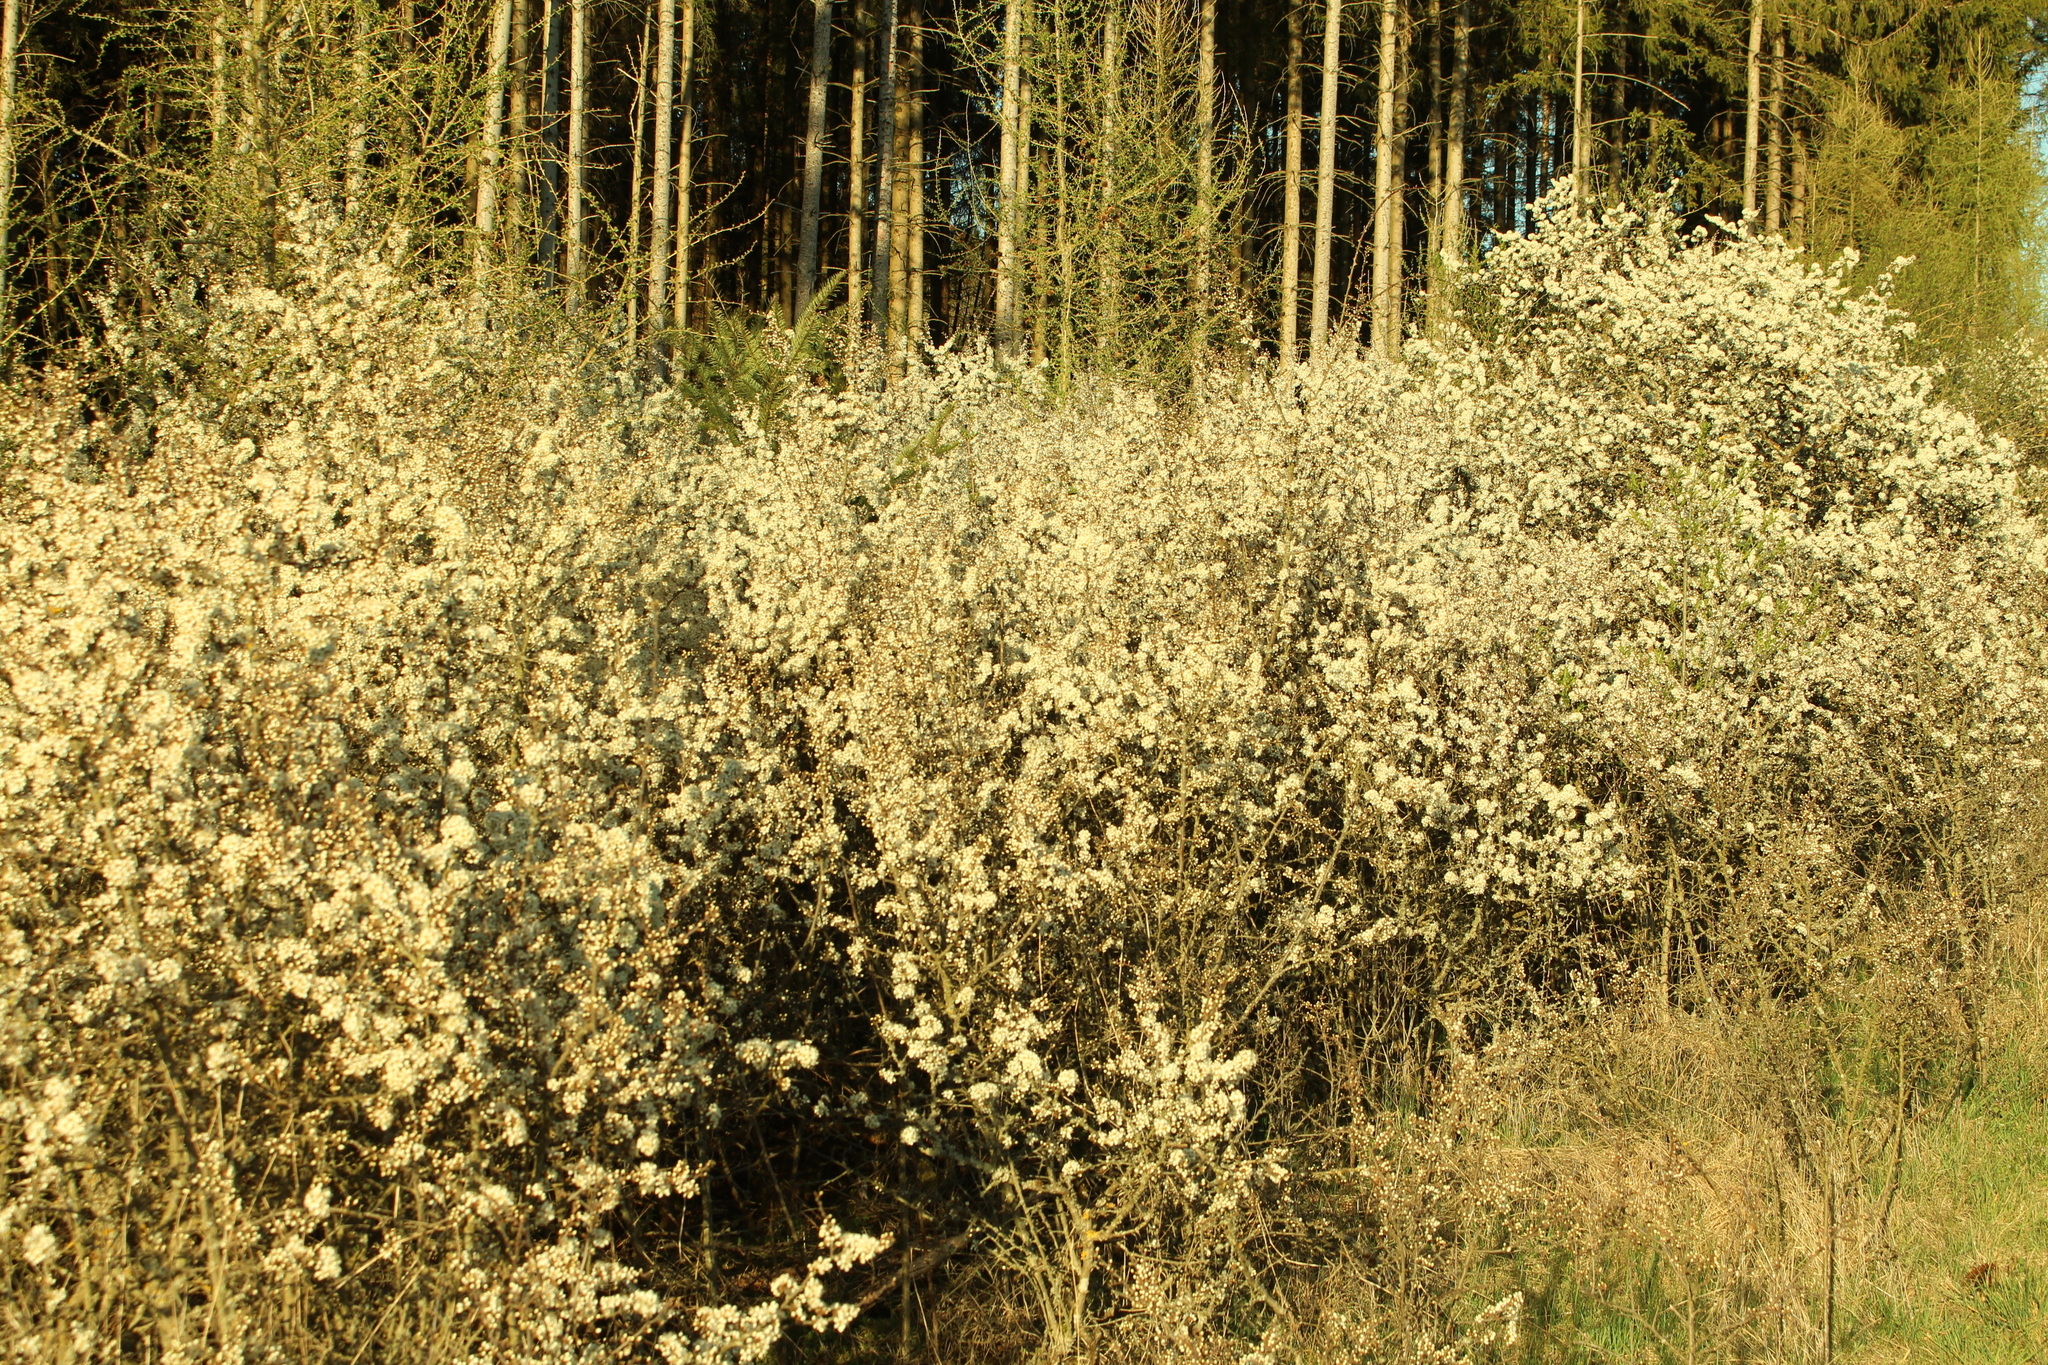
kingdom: Plantae
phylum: Tracheophyta
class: Magnoliopsida
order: Rosales
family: Rosaceae
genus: Prunus
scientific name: Prunus spinosa
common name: Blackthorn
